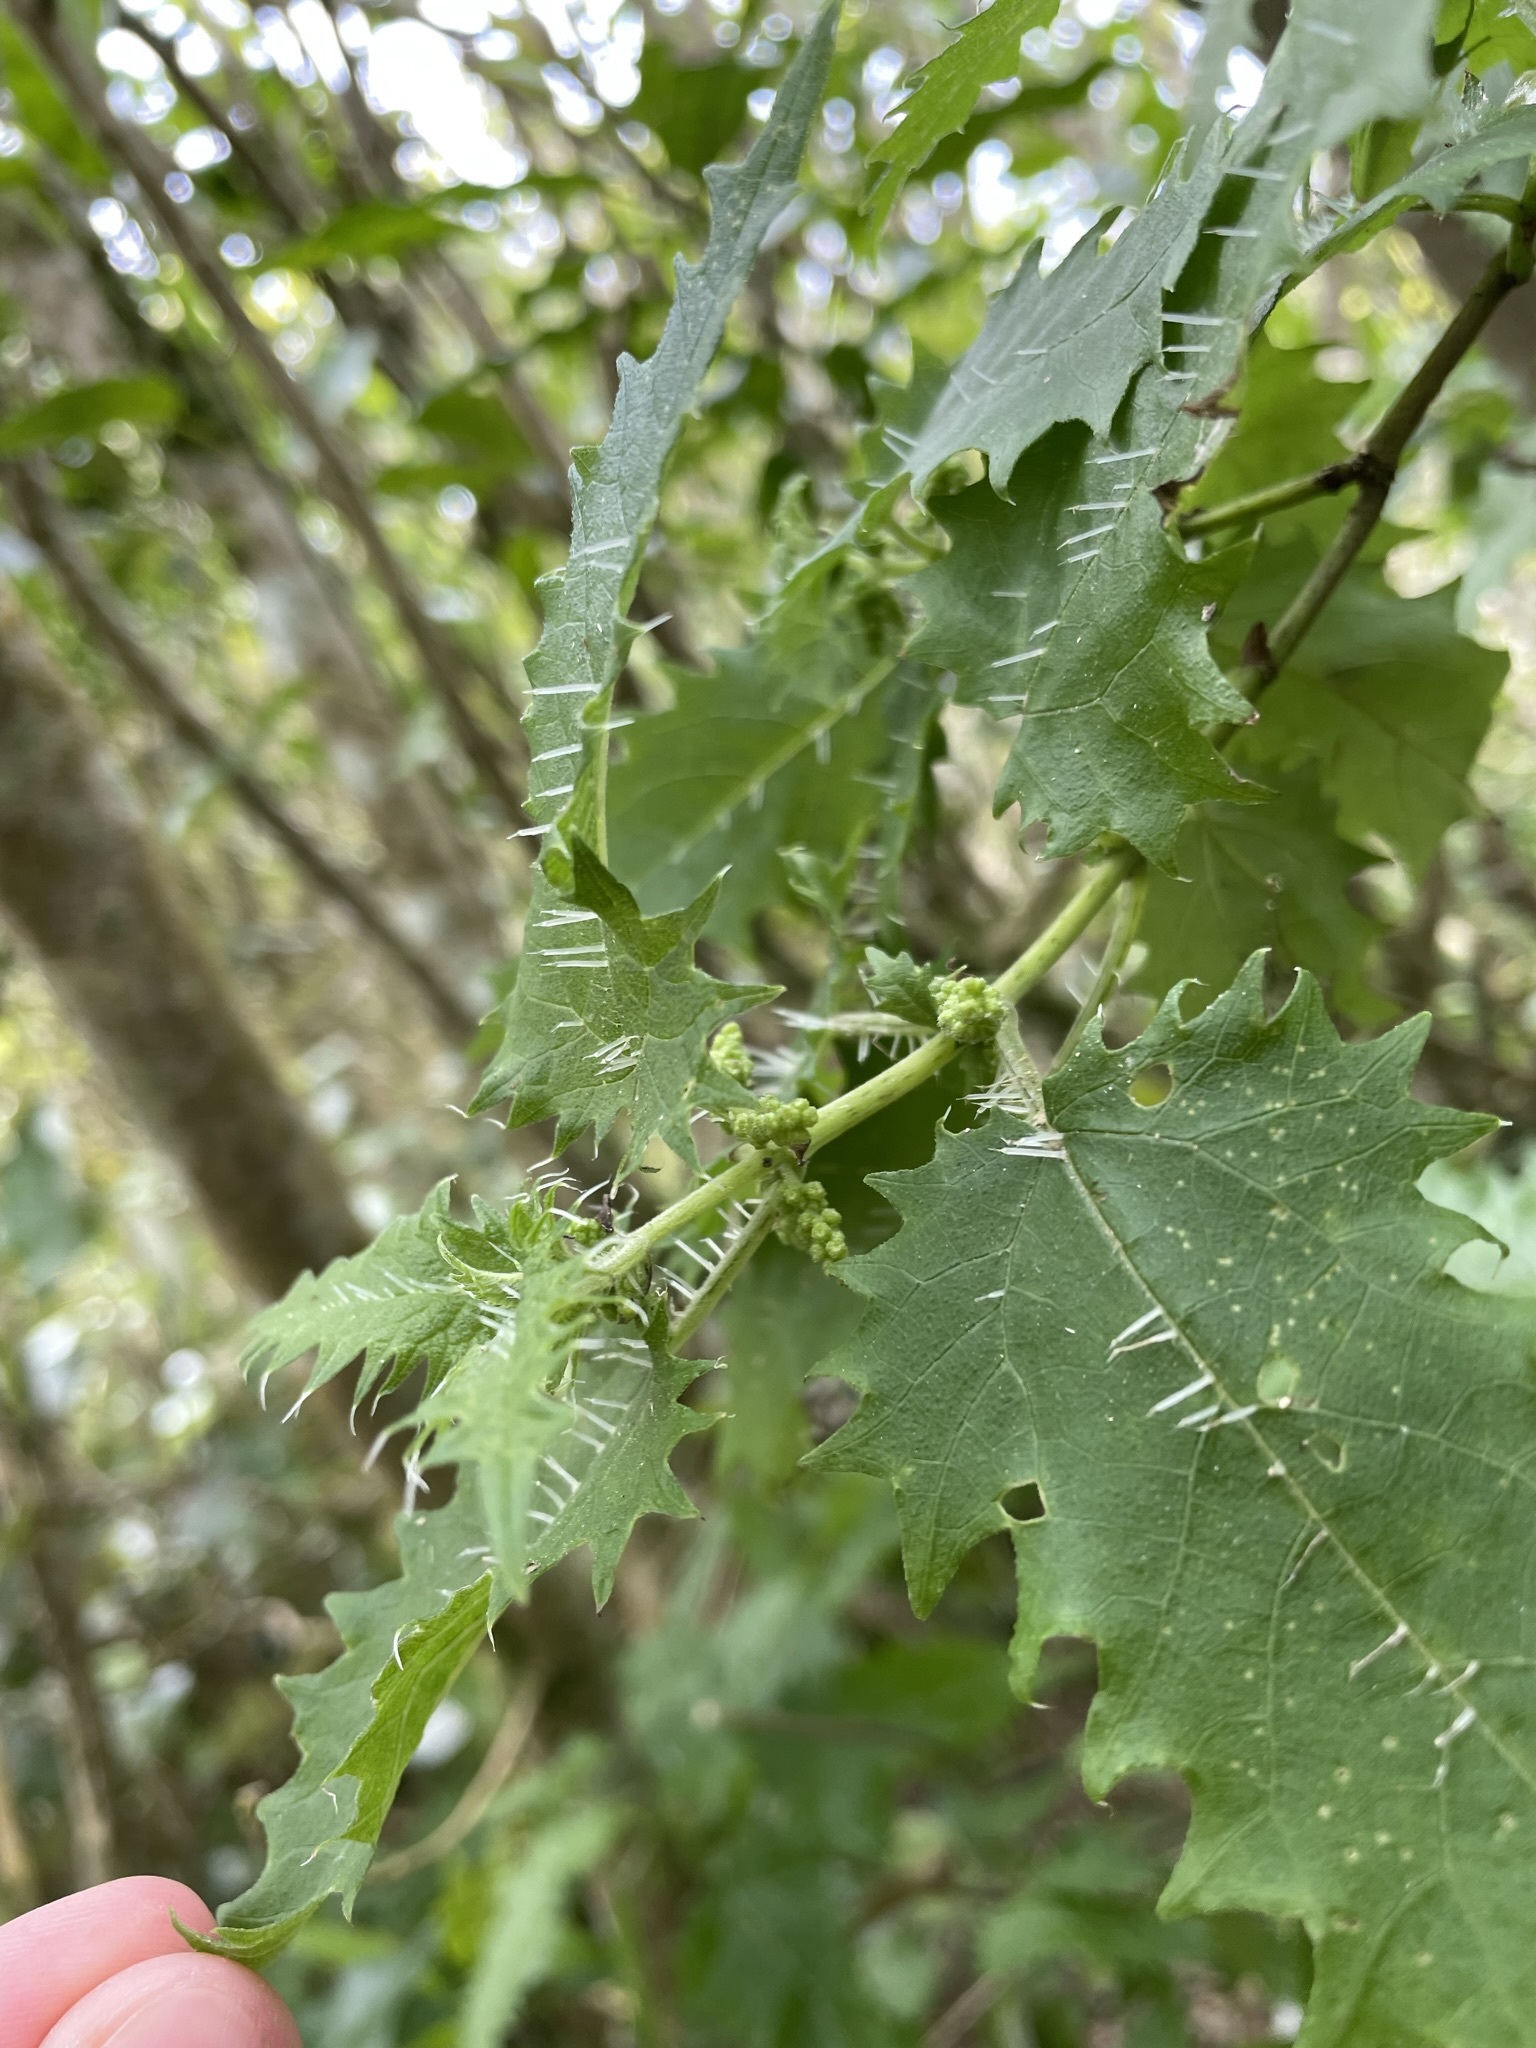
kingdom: Plantae
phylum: Tracheophyta
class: Magnoliopsida
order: Rosales
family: Urticaceae
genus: Urtica
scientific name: Urtica ferox
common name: Tree nettle
